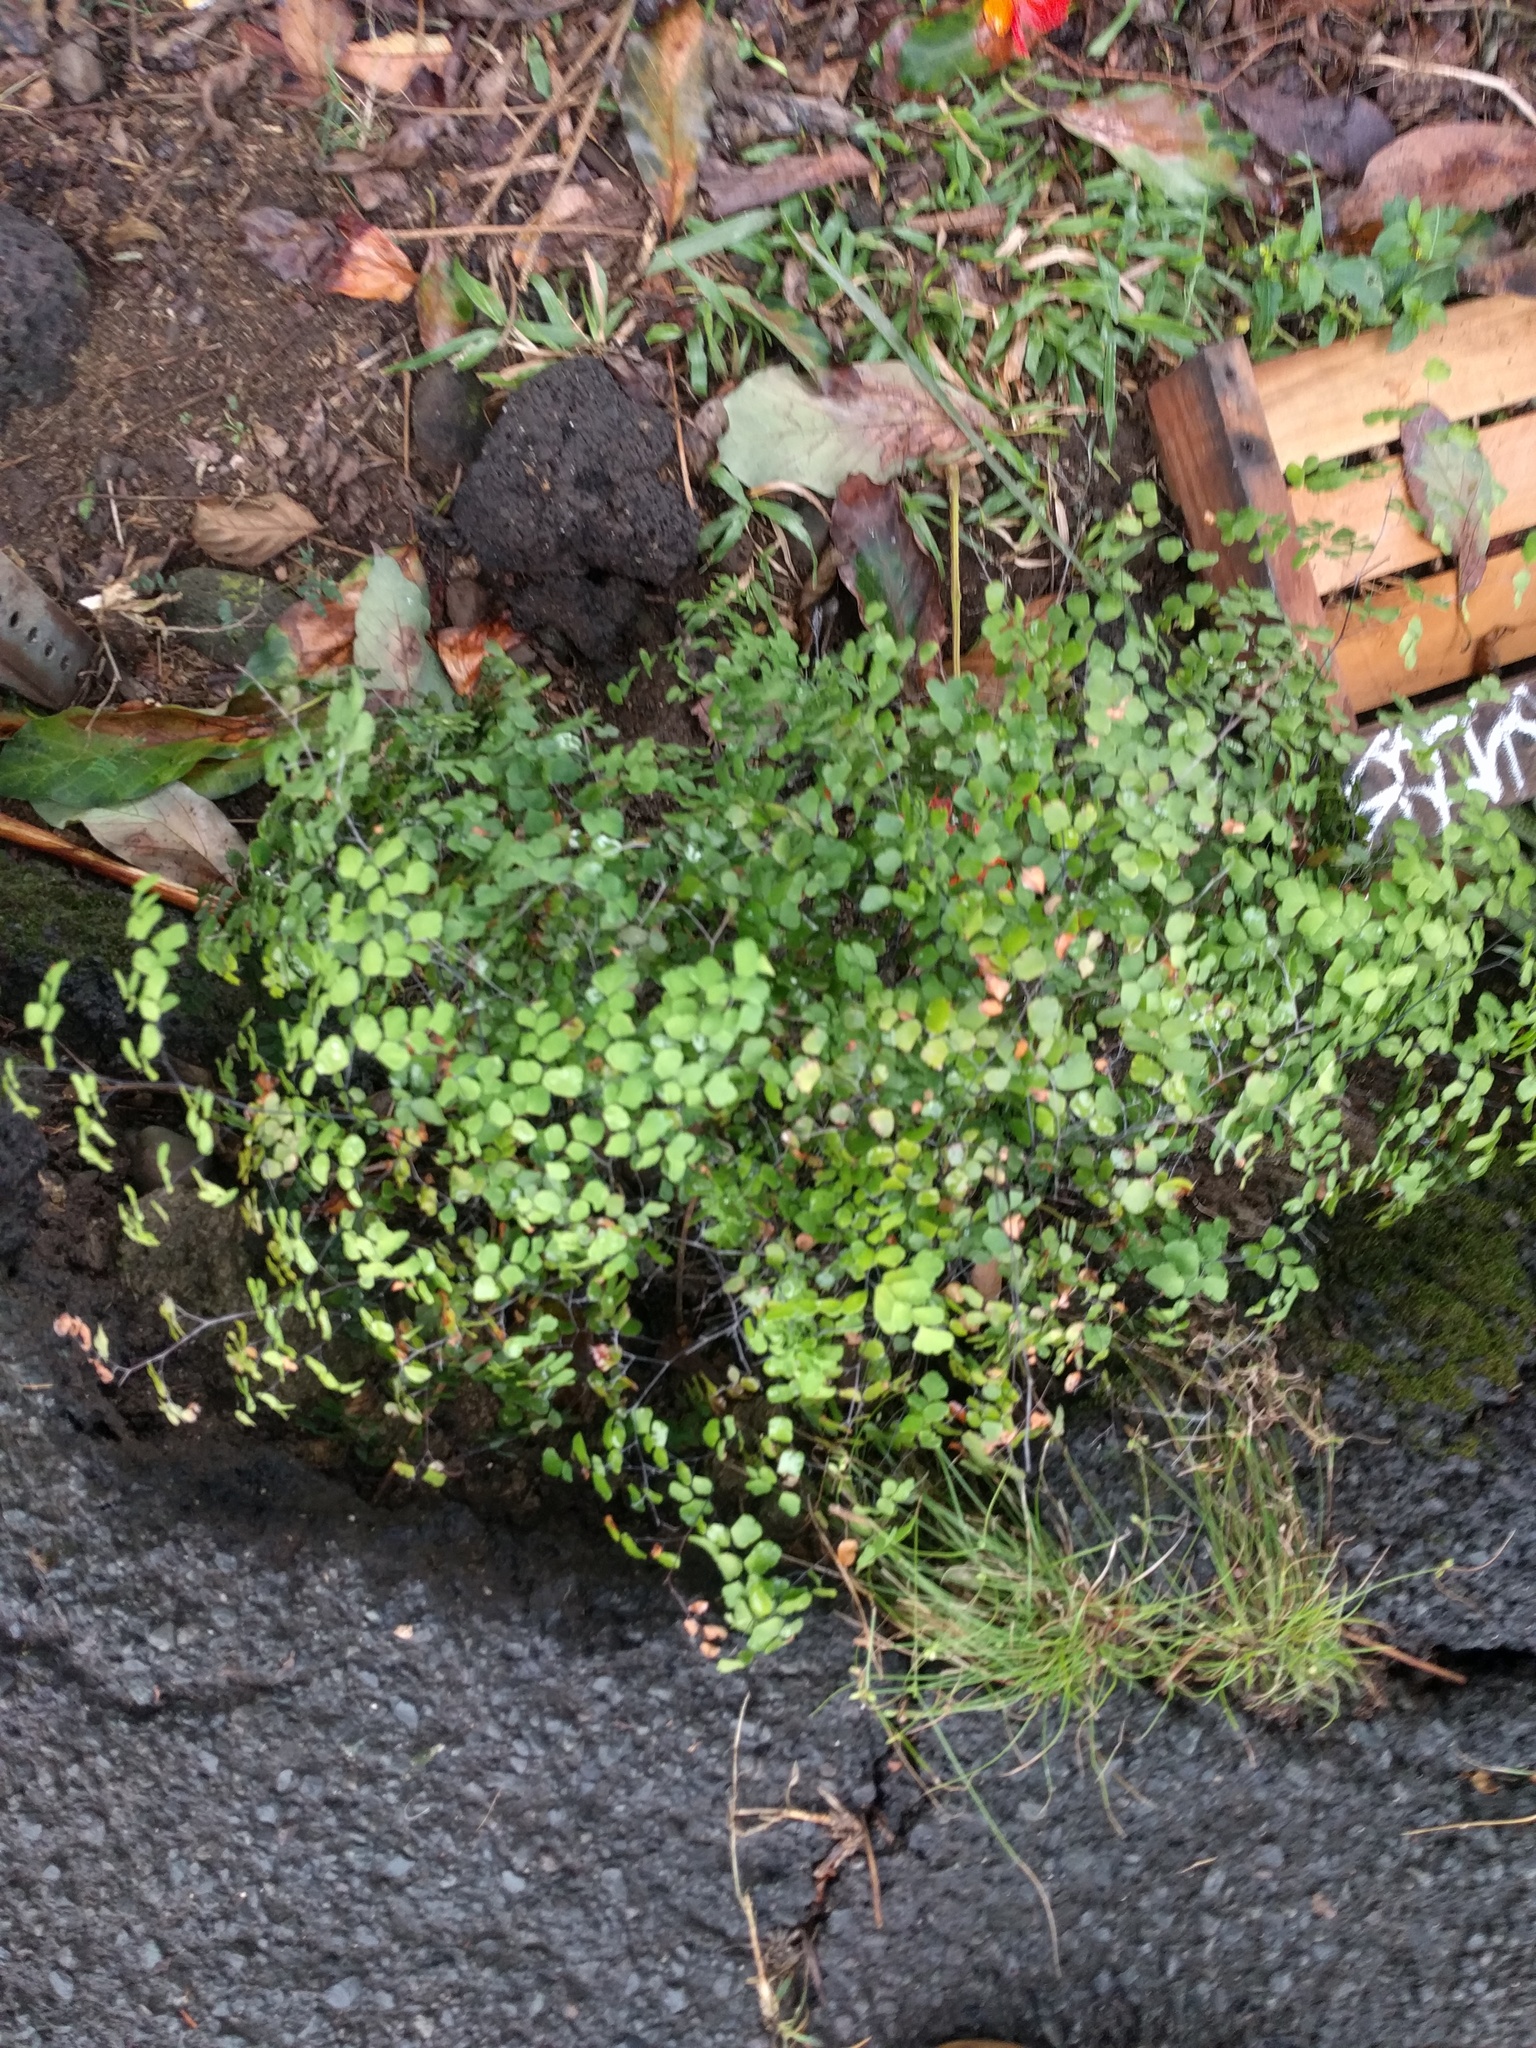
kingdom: Plantae
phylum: Tracheophyta
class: Polypodiopsida
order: Polypodiales
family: Pteridaceae
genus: Adiantum
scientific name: Adiantum raddianum
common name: Delta maidenhair fern
